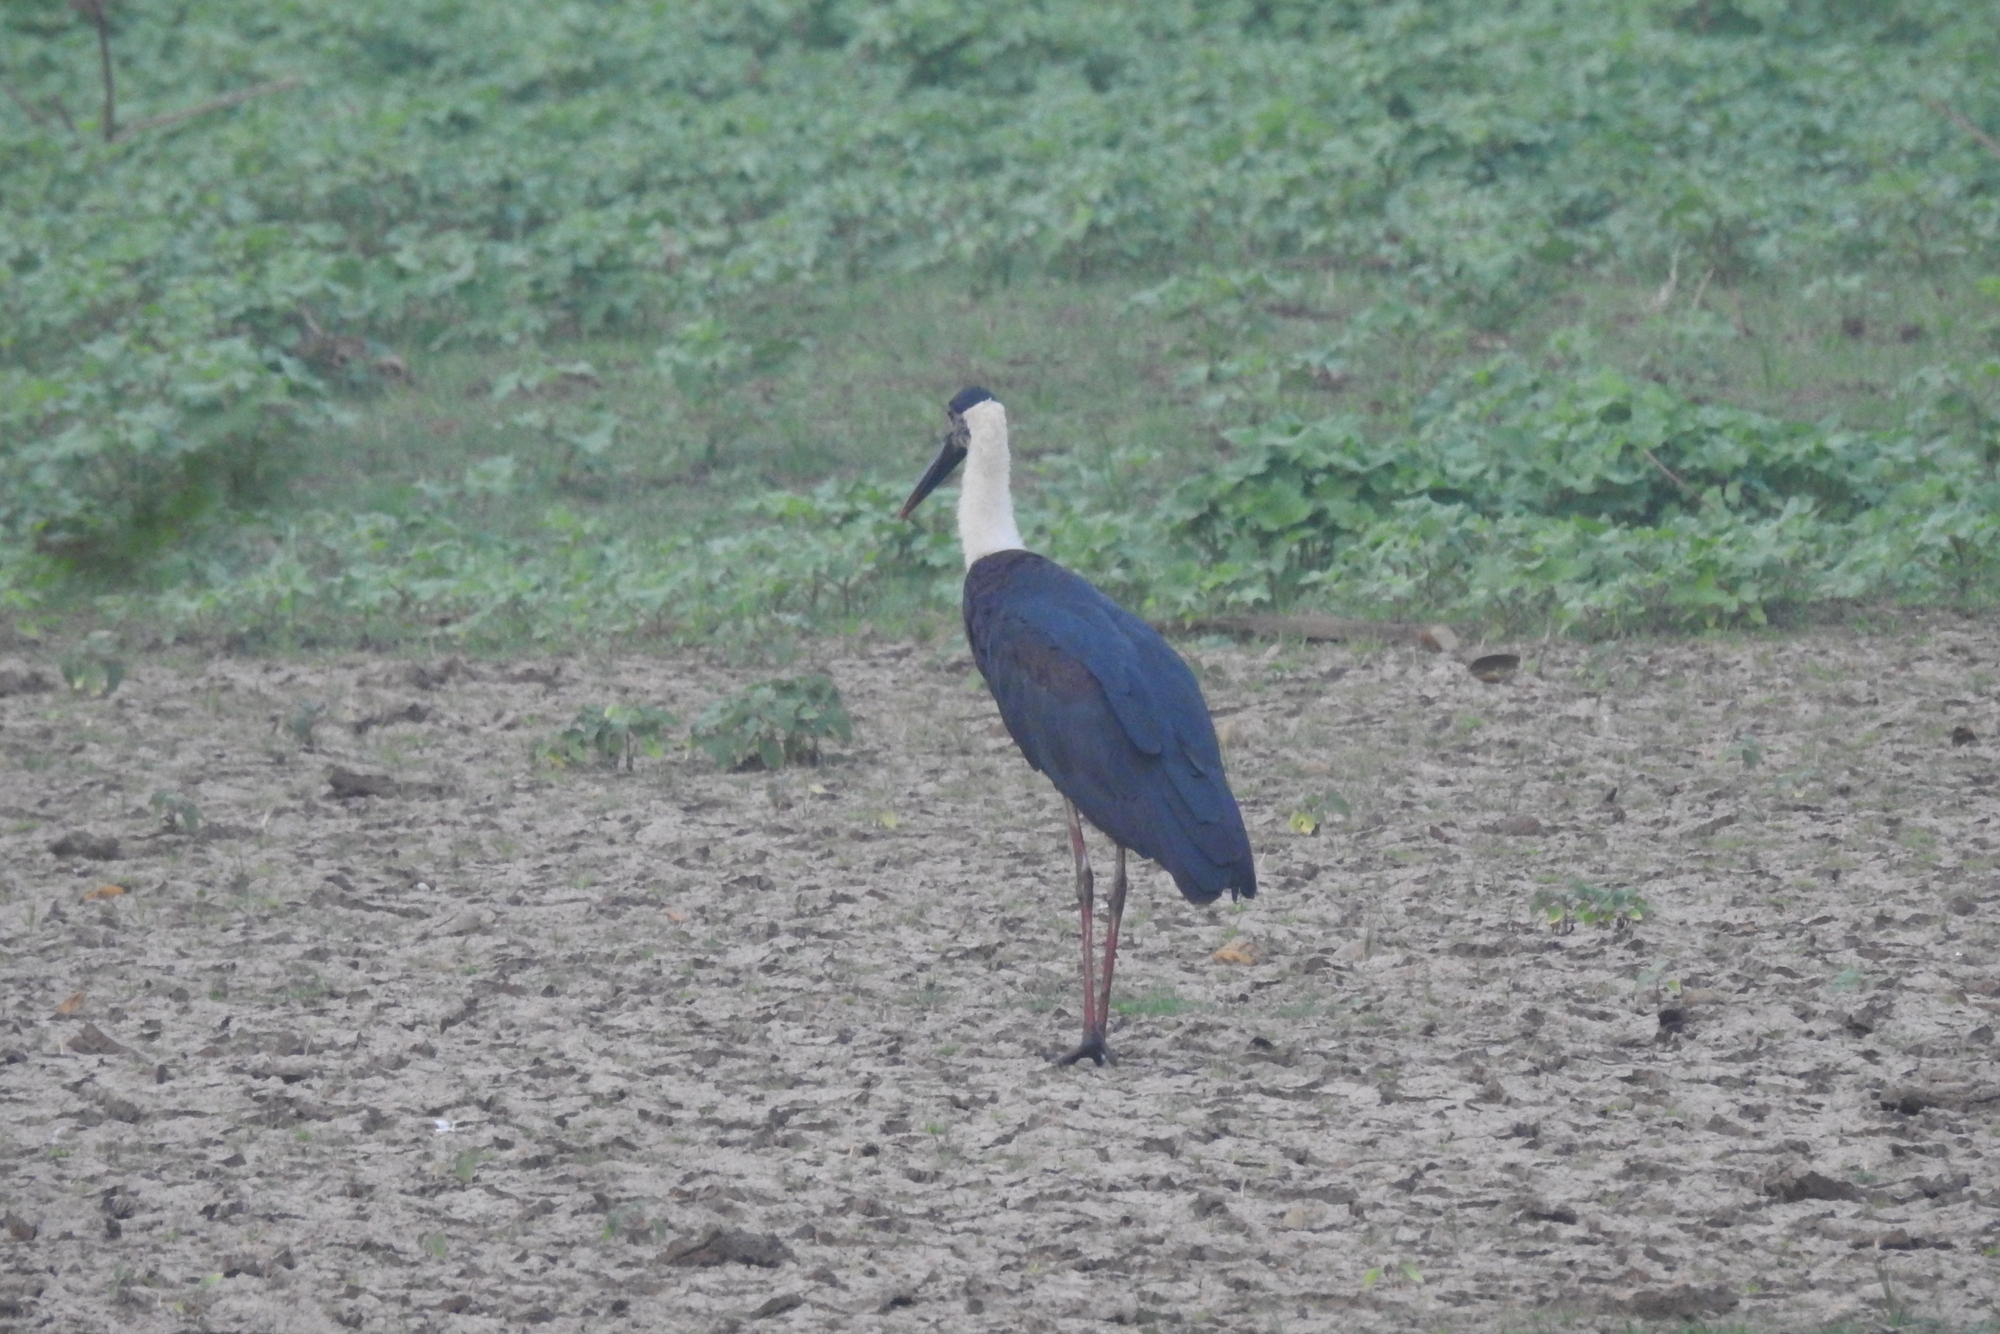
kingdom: Animalia
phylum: Chordata
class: Aves
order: Ciconiiformes
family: Ciconiidae
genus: Ciconia
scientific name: Ciconia episcopus
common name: Woolly-necked stork
